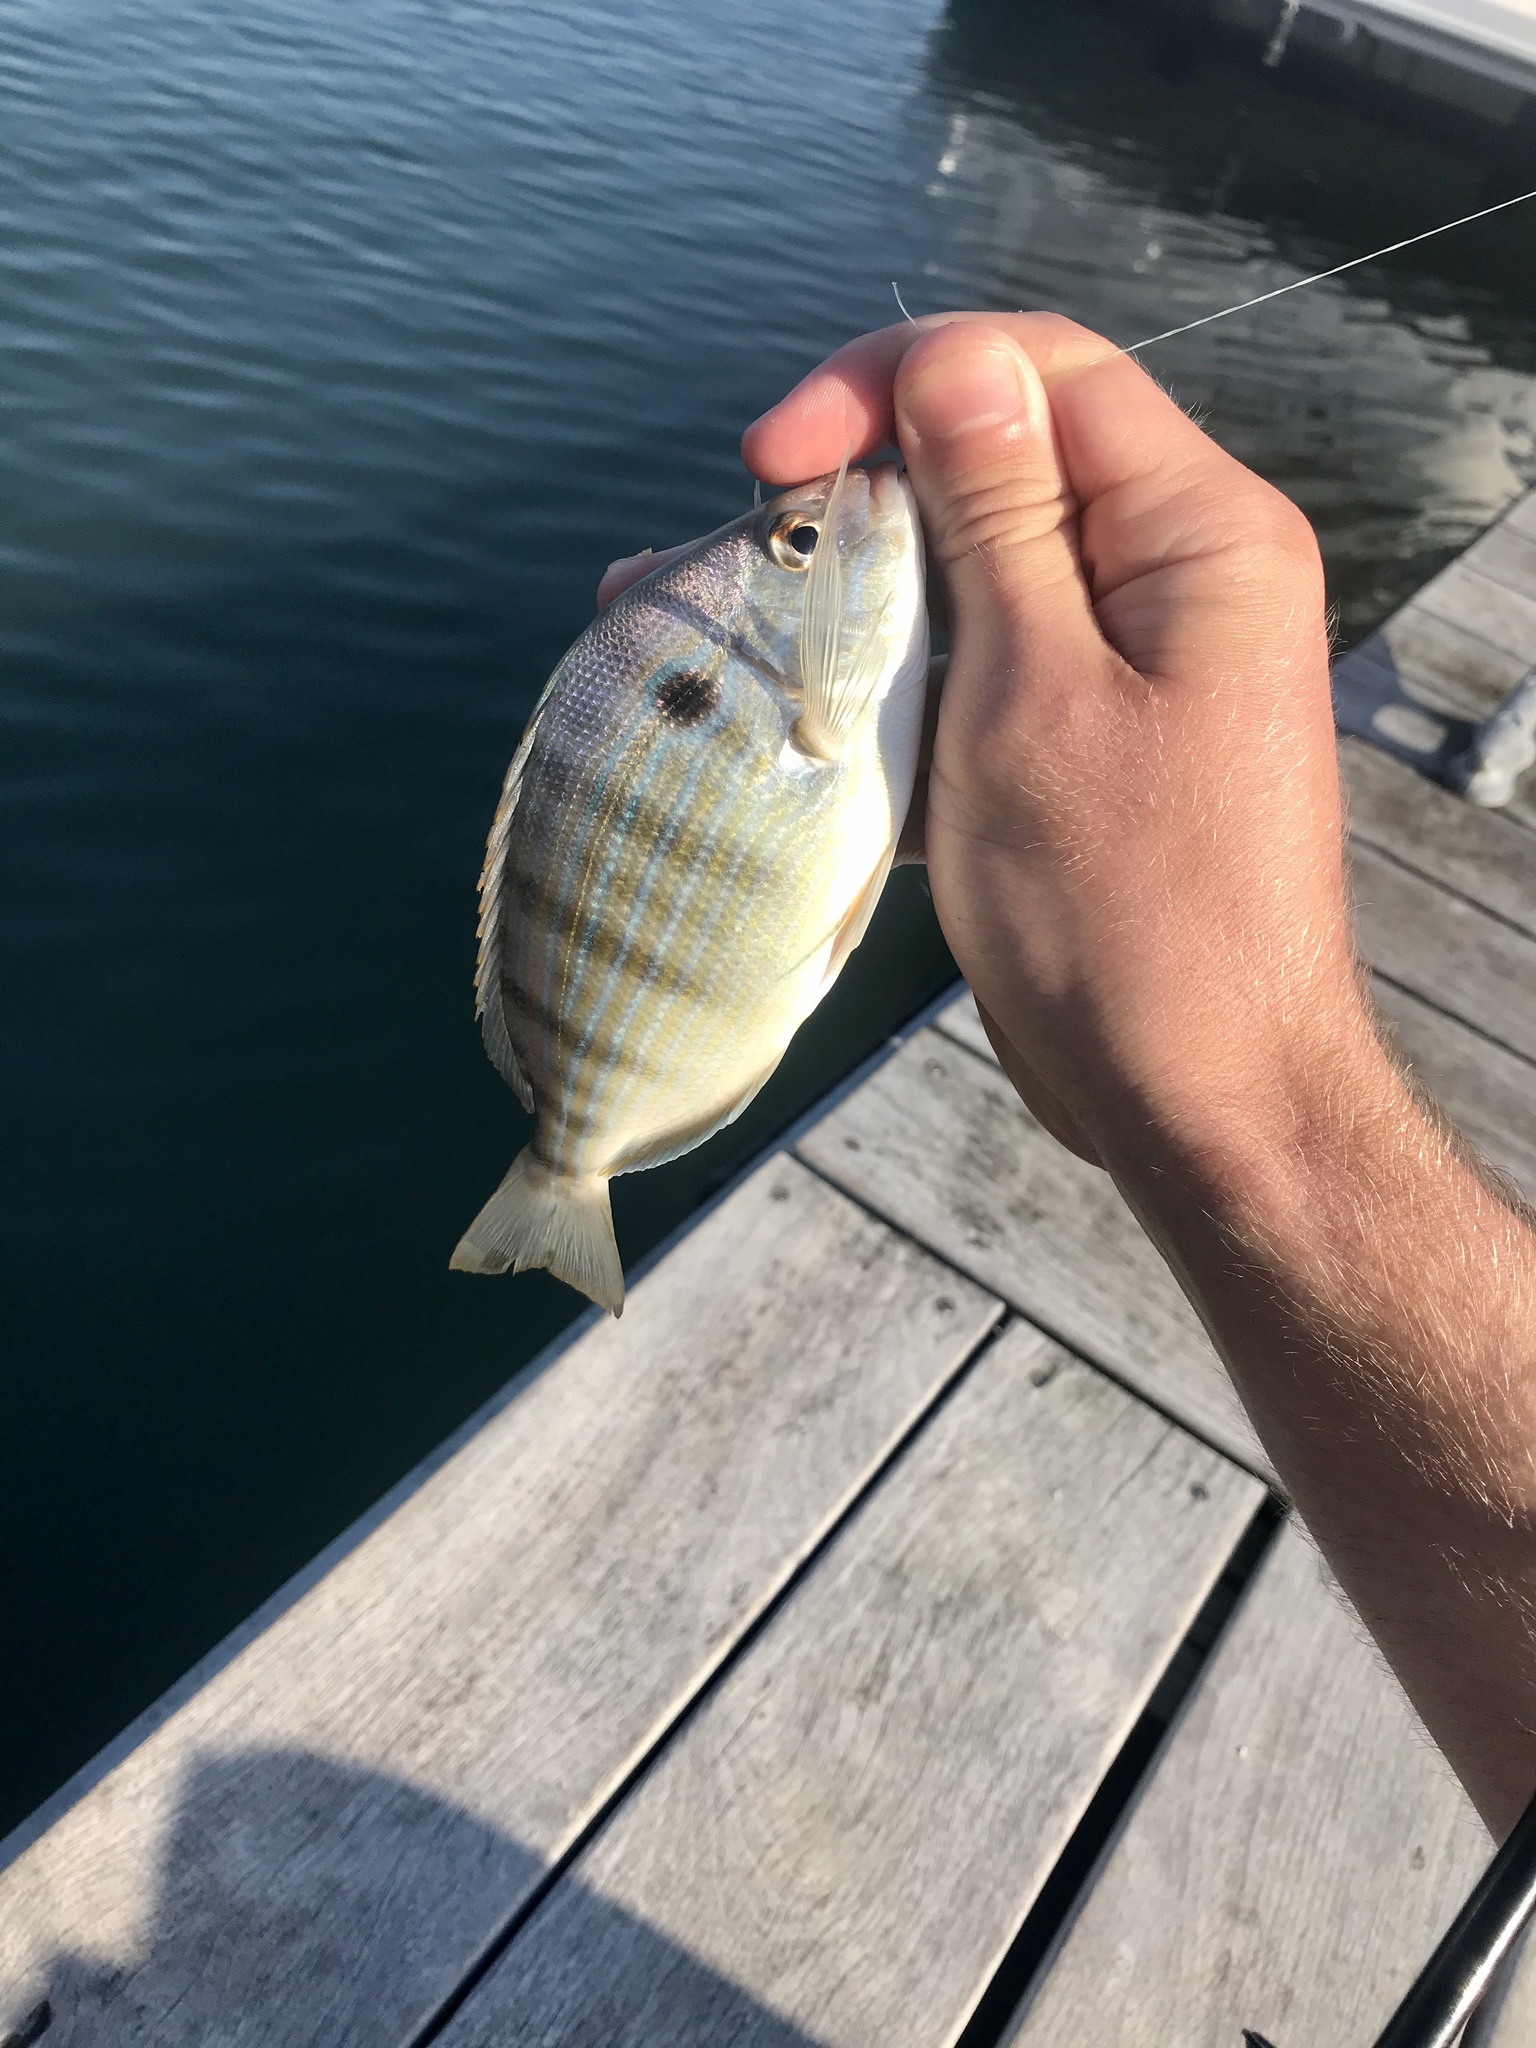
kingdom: Animalia
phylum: Chordata
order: Perciformes
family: Sparidae
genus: Lagodon
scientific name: Lagodon rhomboides
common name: Pinfish
